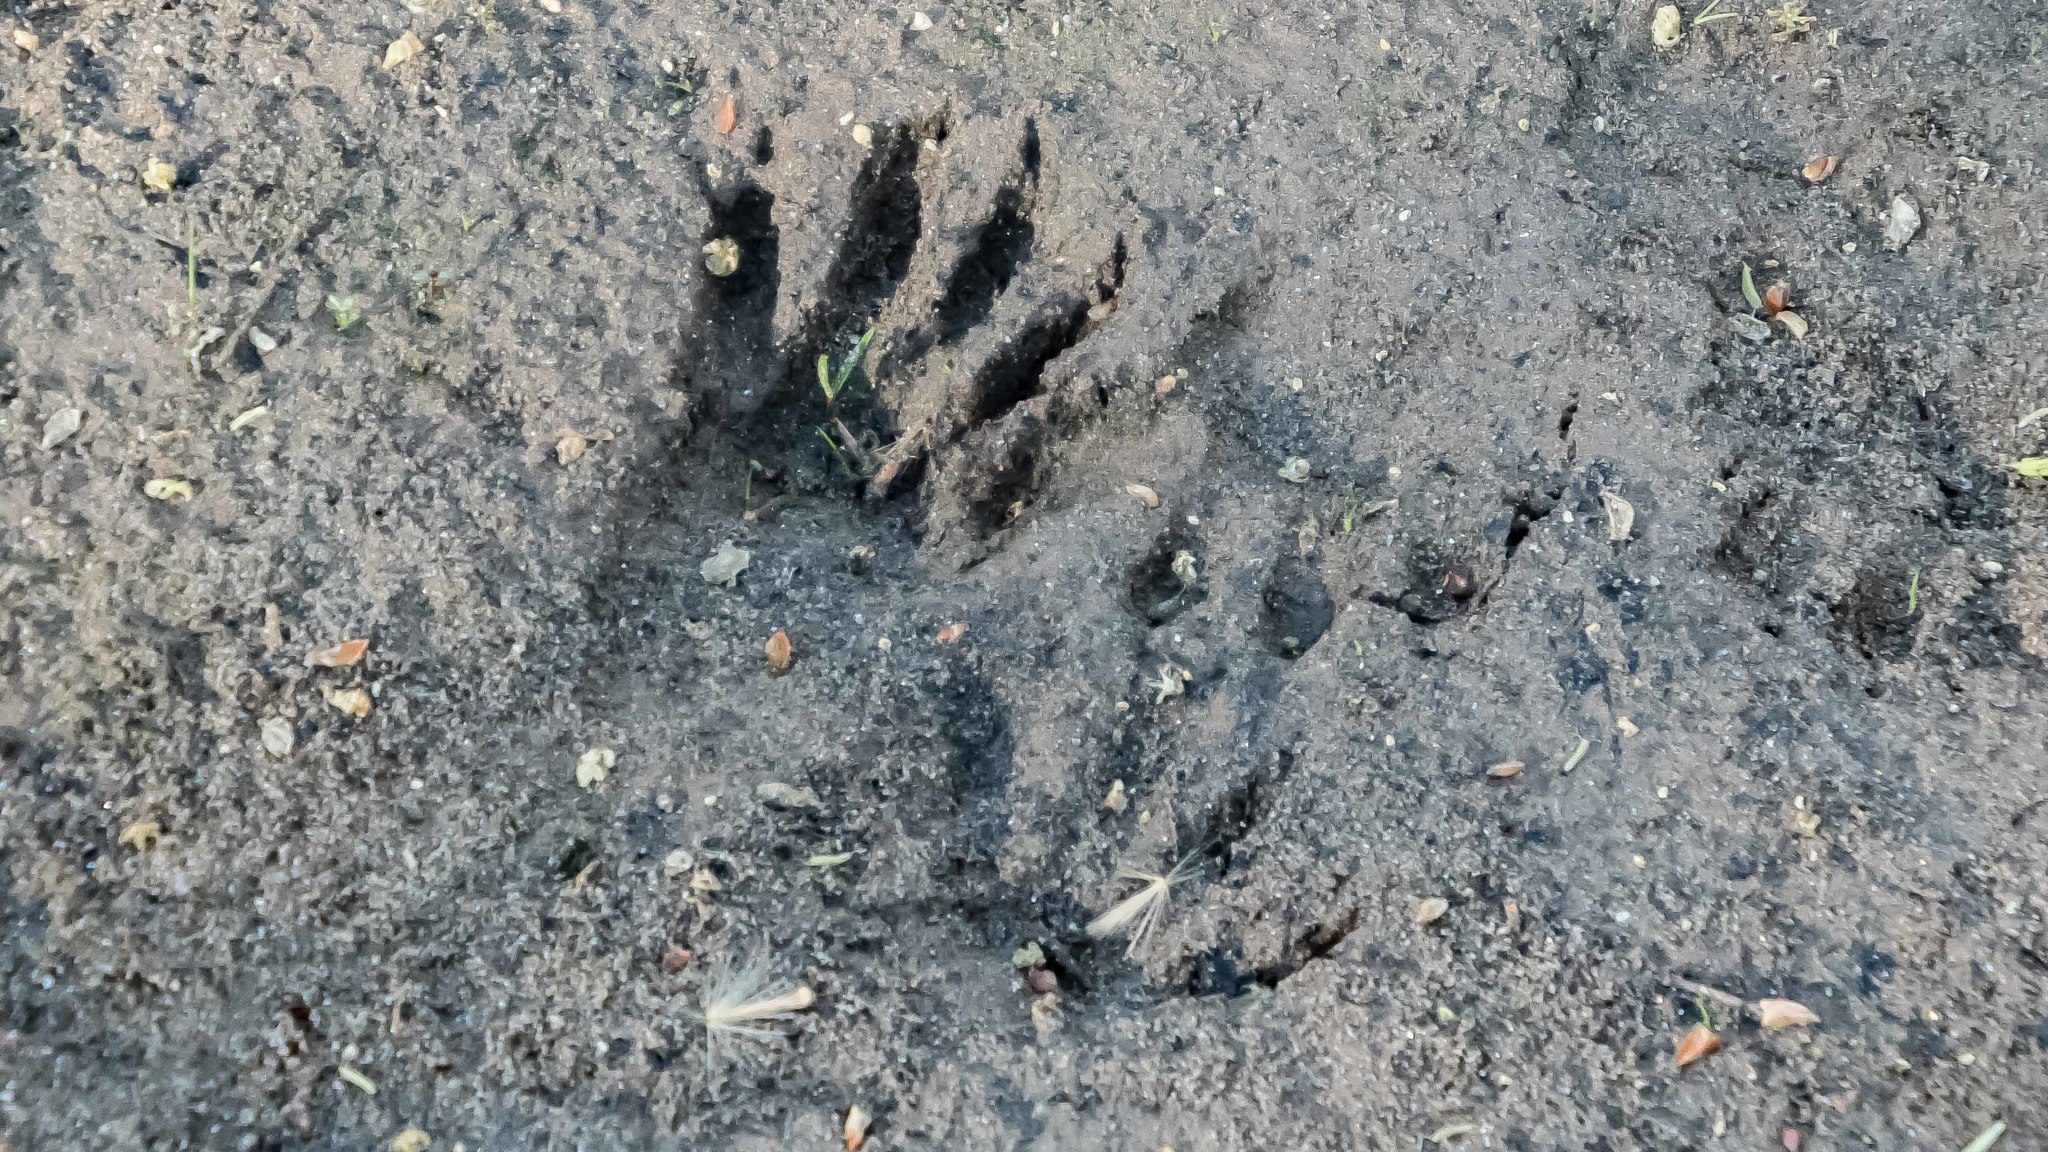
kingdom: Animalia
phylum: Chordata
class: Mammalia
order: Carnivora
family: Procyonidae
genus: Procyon
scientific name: Procyon lotor
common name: Raccoon
